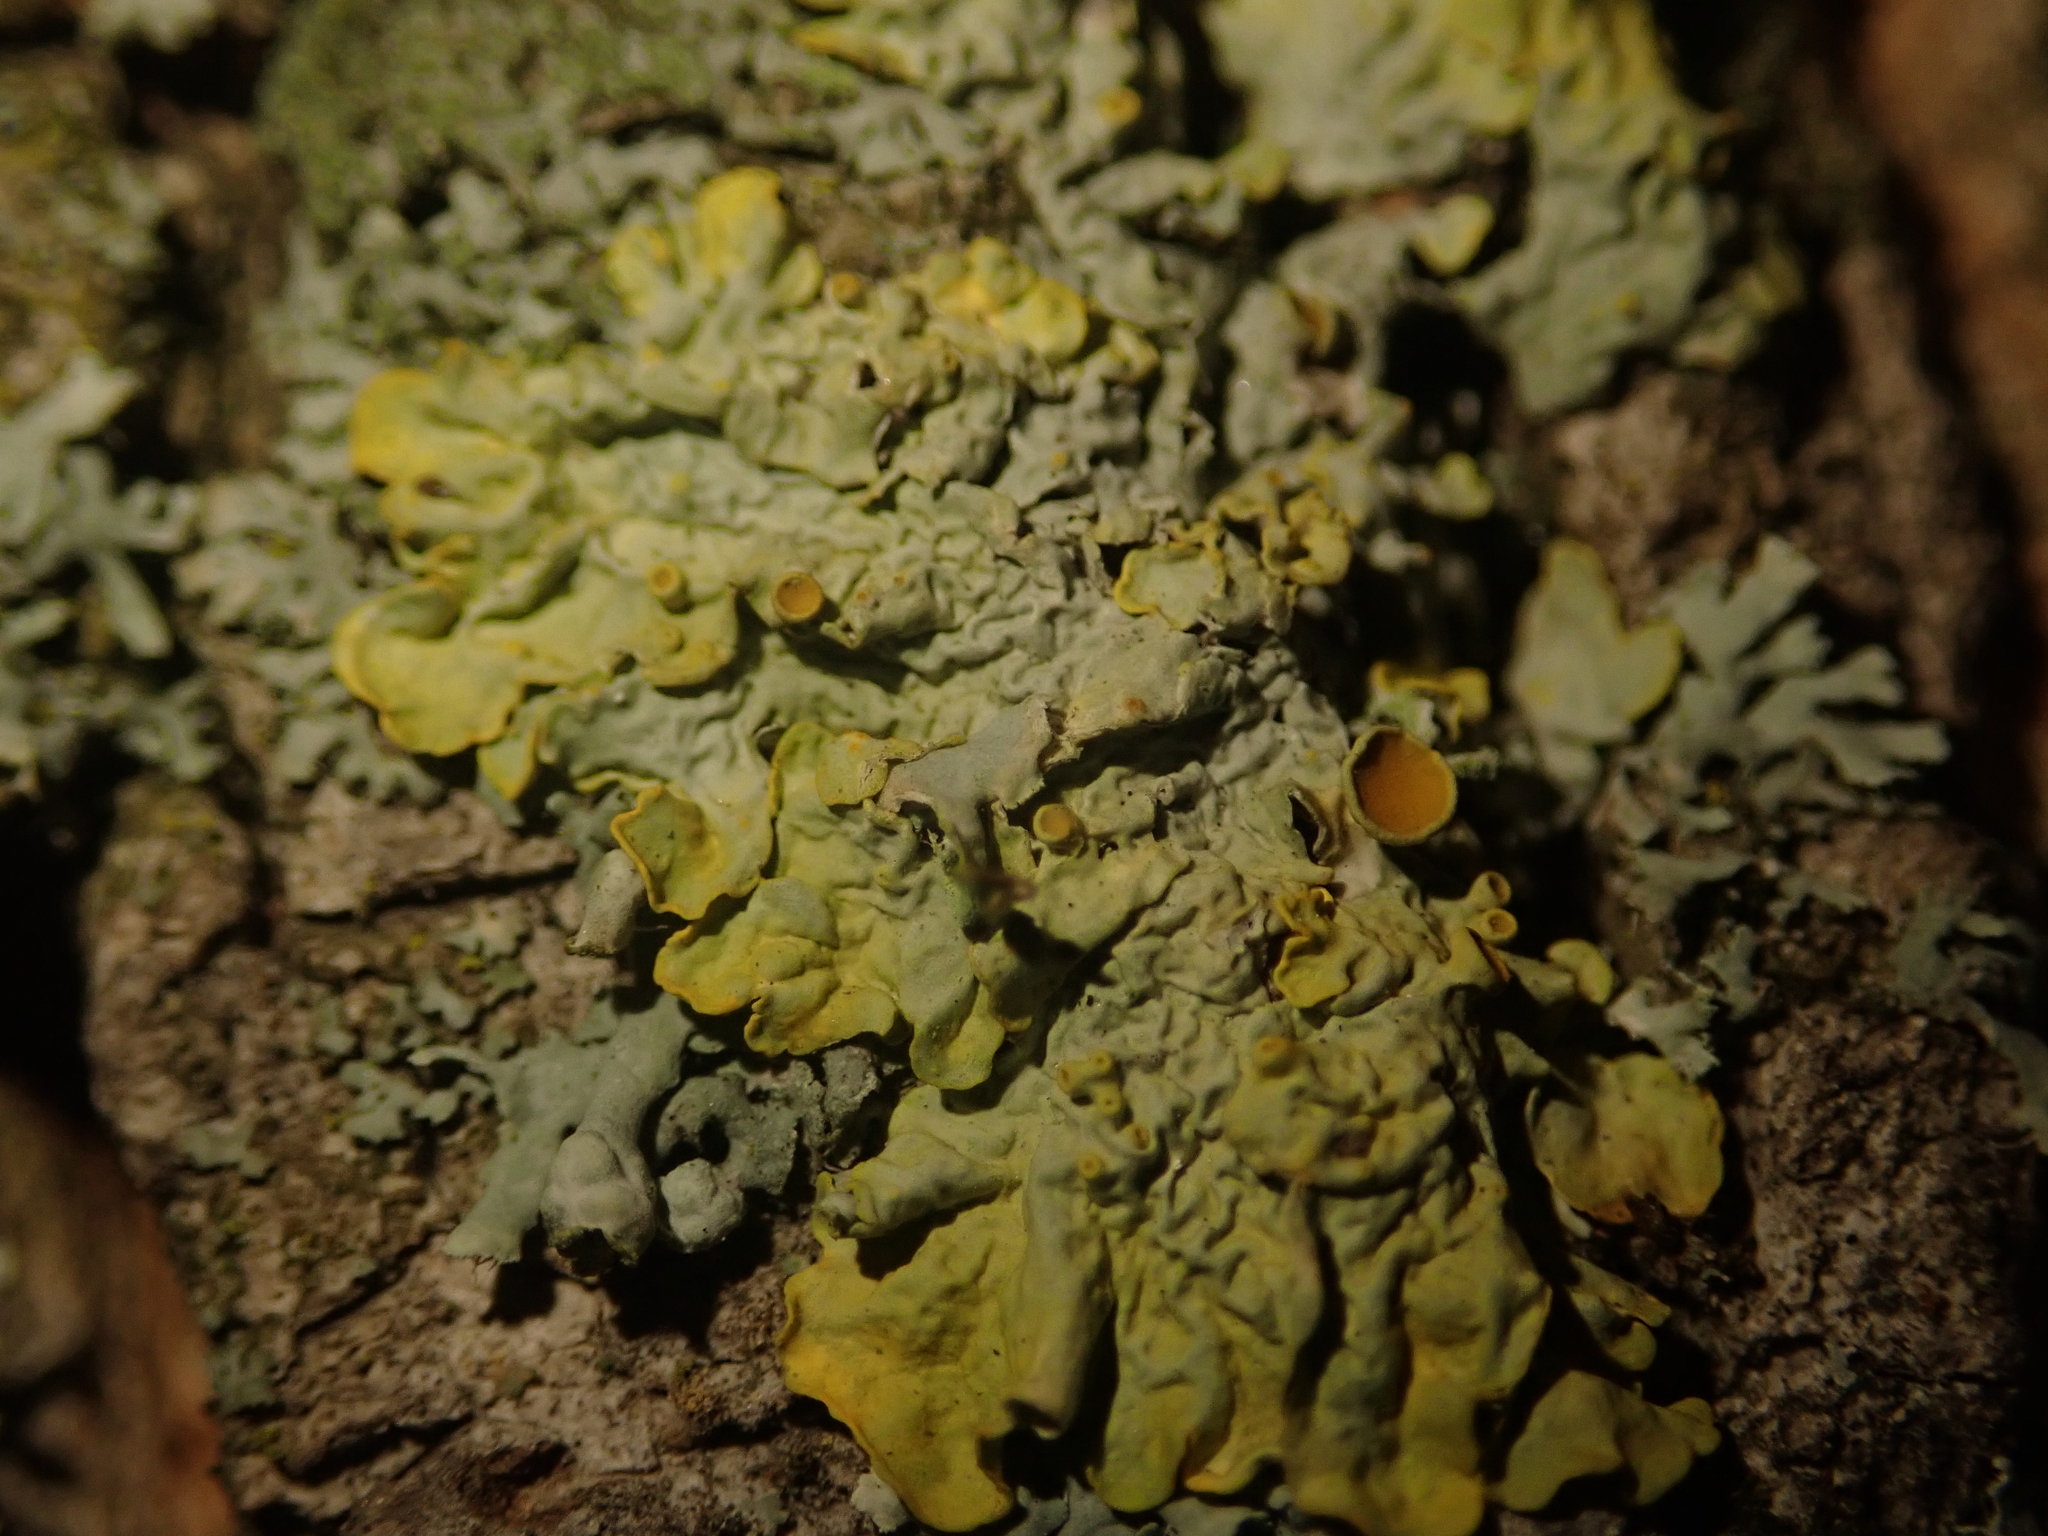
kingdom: Fungi
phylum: Ascomycota
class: Lecanoromycetes
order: Teloschistales
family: Teloschistaceae
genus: Xanthoria
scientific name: Xanthoria parietina
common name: Common orange lichen
